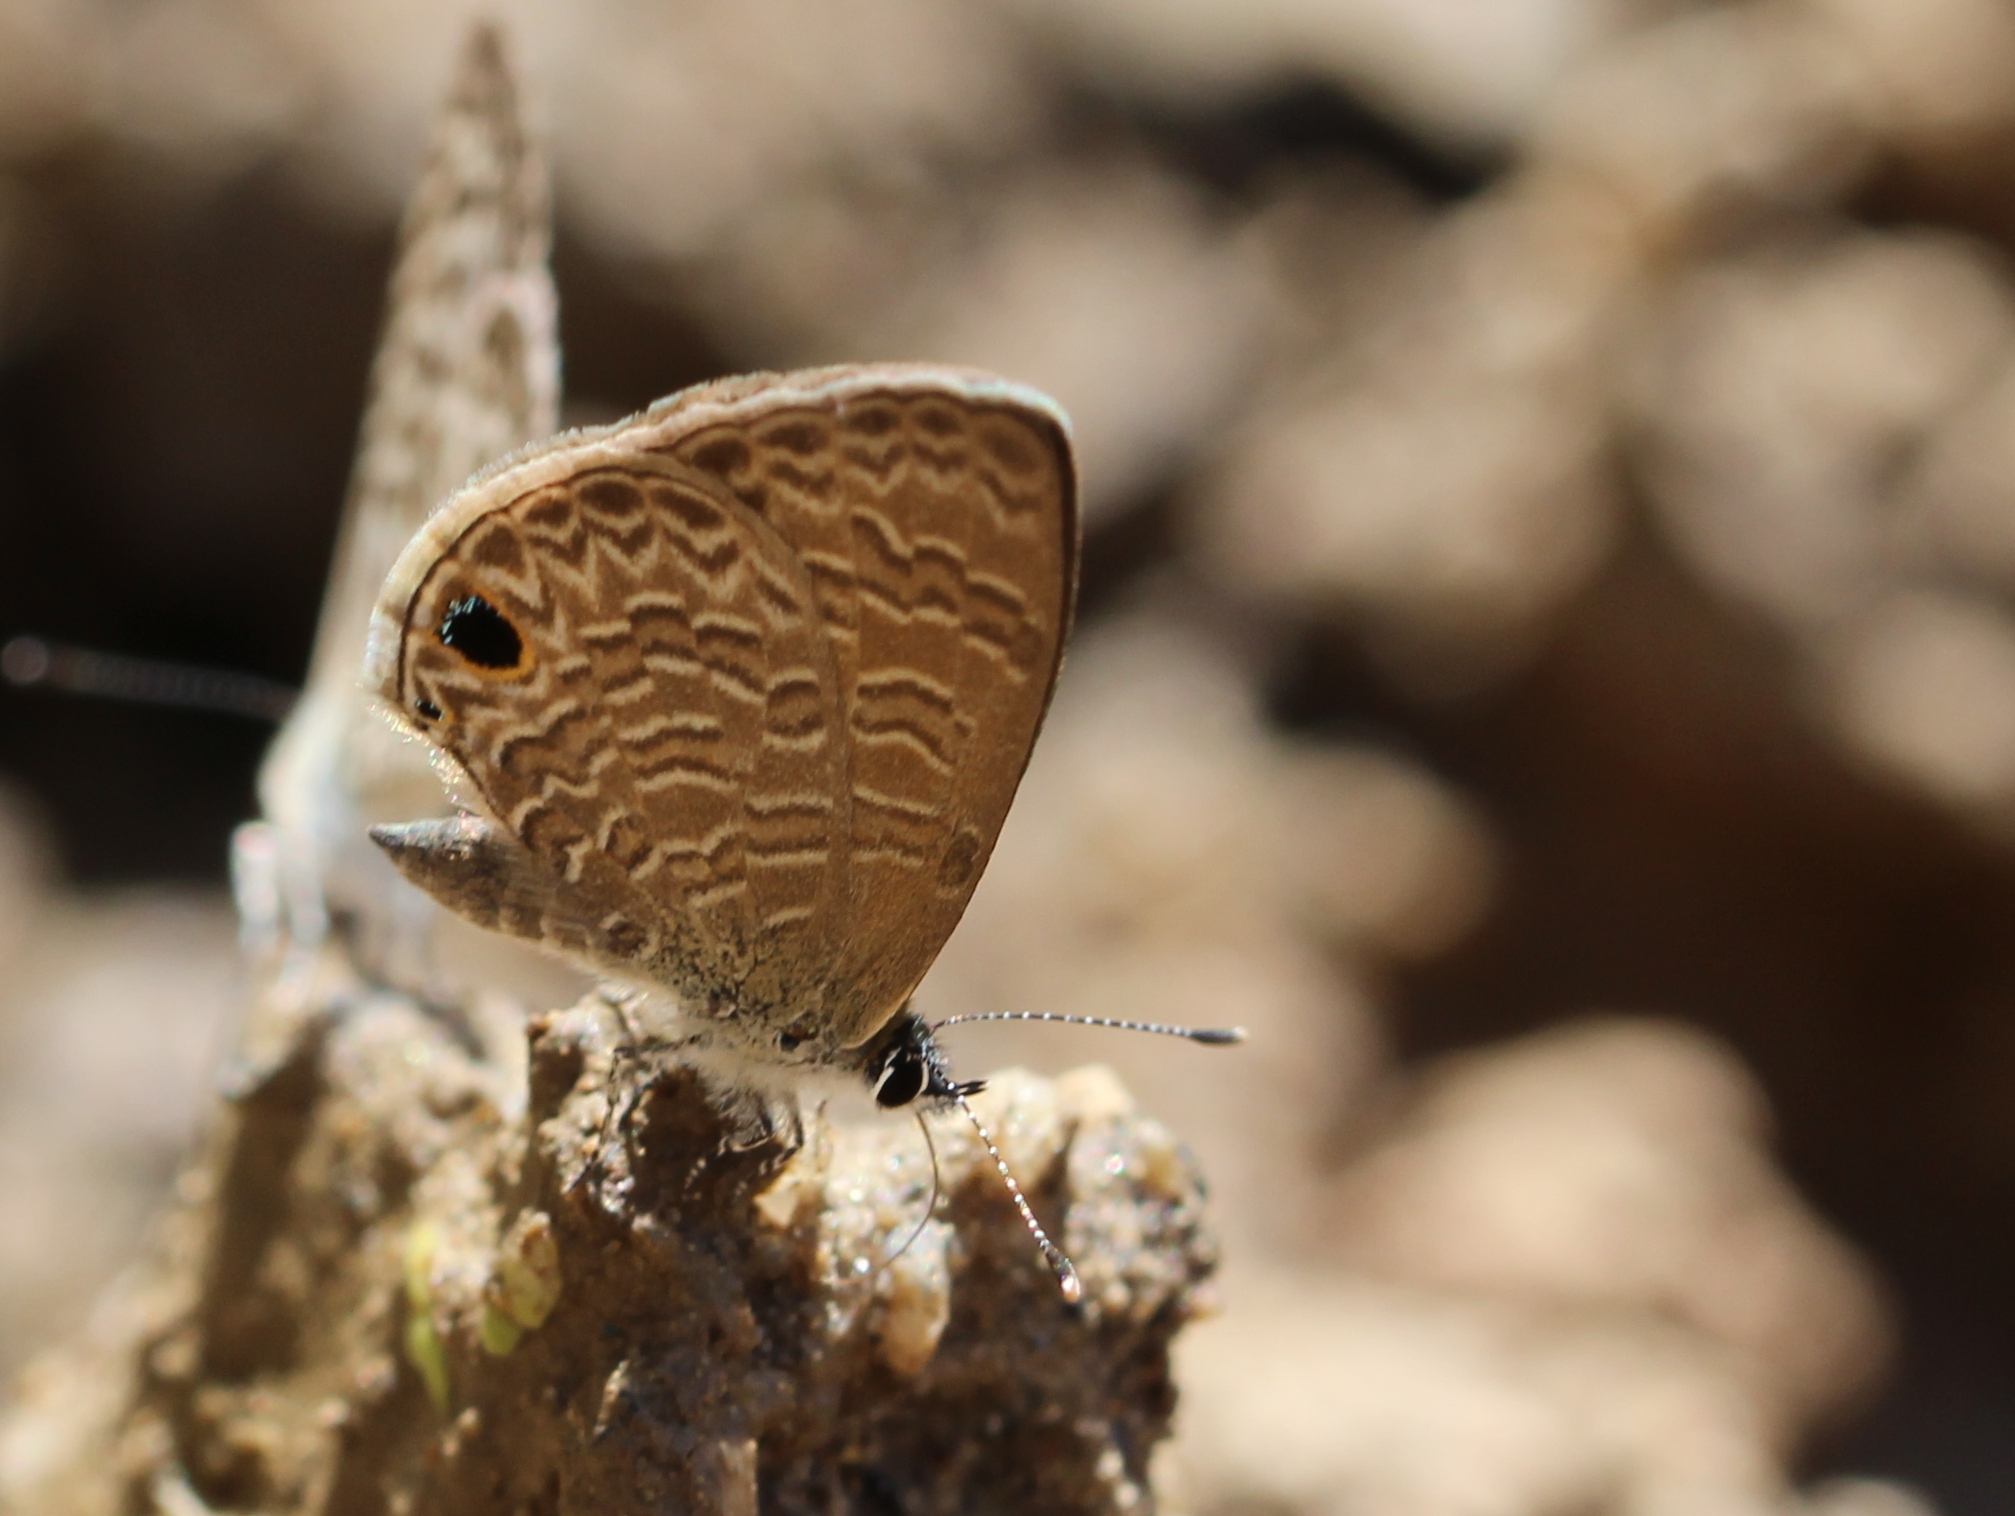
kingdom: Animalia
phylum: Arthropoda
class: Insecta
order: Lepidoptera
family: Lycaenidae
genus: Prosotas
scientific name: Prosotas dubiosa
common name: Tailless lineblue
